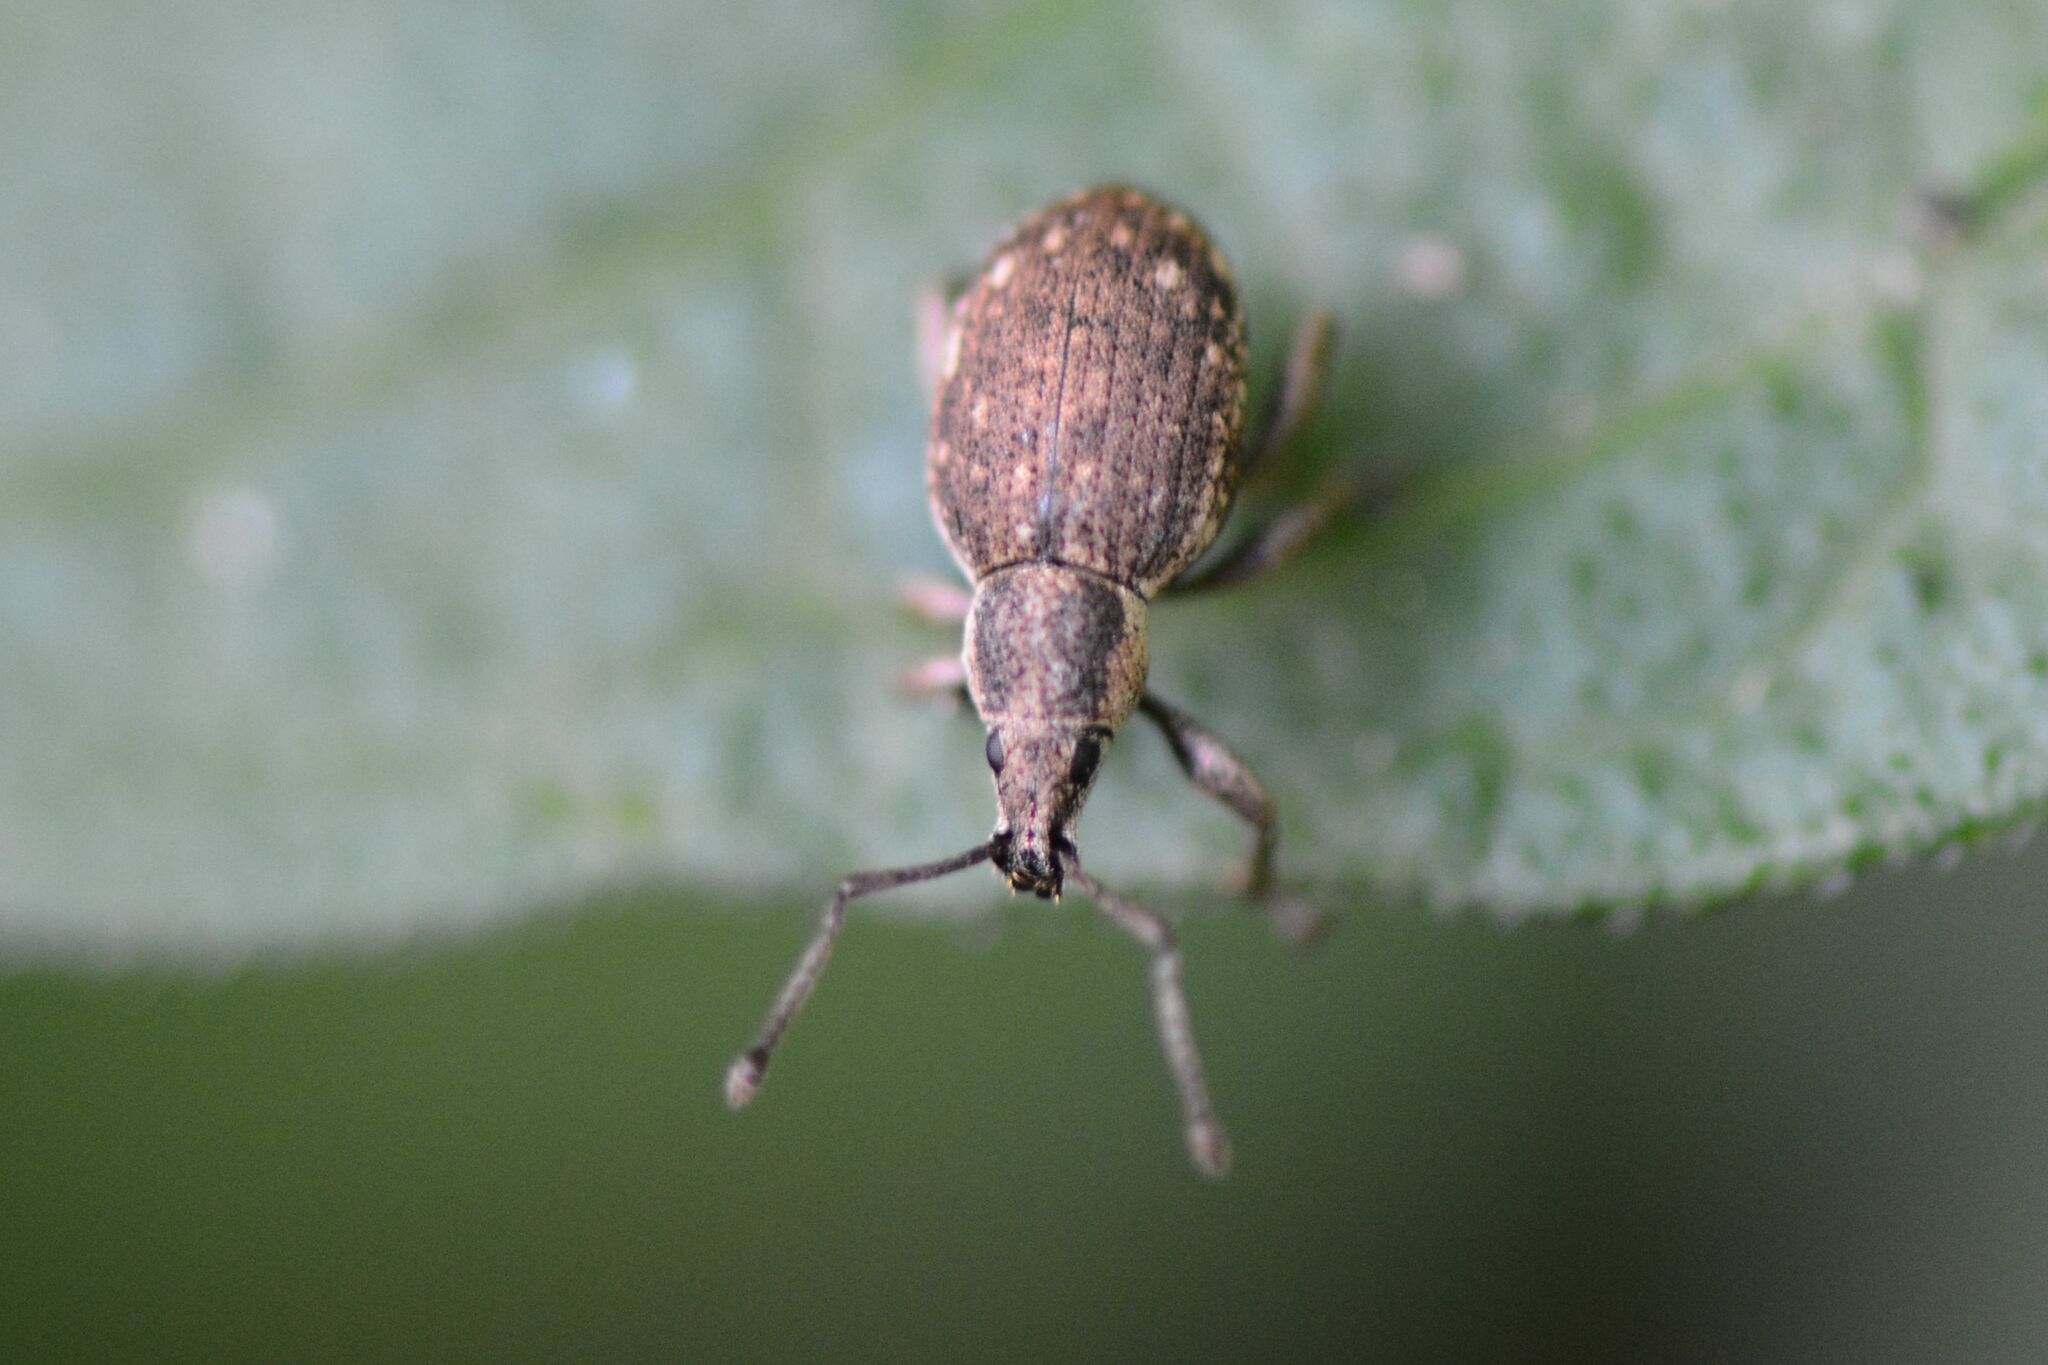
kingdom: Animalia
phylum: Arthropoda
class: Insecta
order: Coleoptera
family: Curculionidae
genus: Peritelus
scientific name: Peritelus sphaeroides
